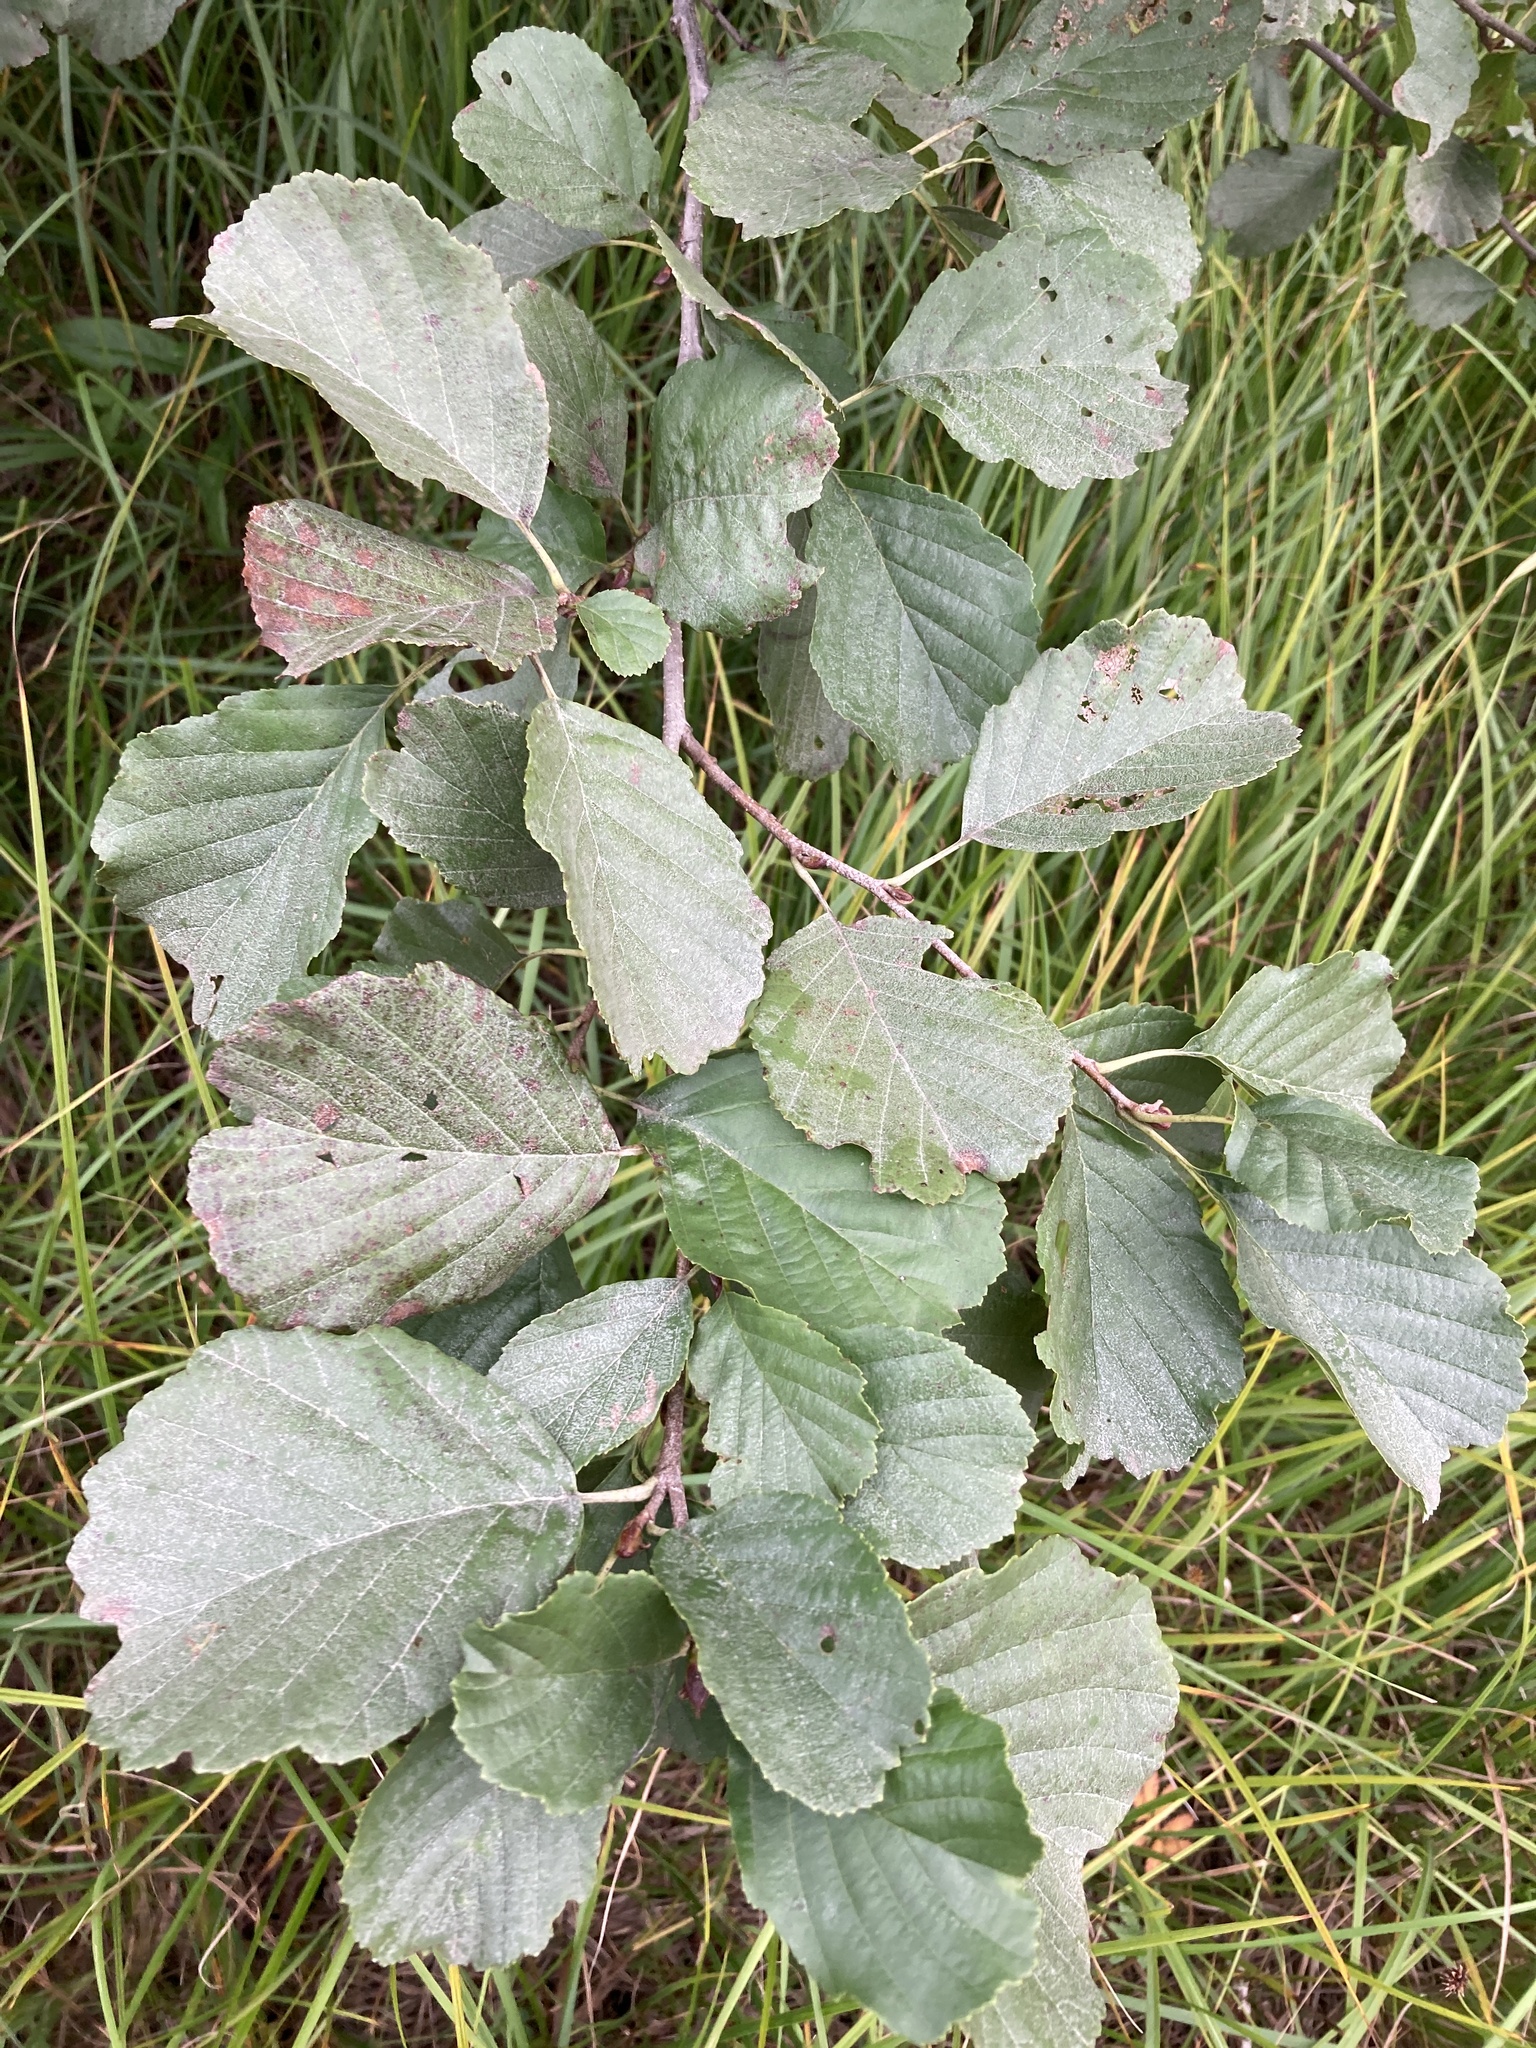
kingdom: Plantae
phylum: Tracheophyta
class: Magnoliopsida
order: Fagales
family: Betulaceae
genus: Alnus
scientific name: Alnus glutinosa
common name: Black alder
